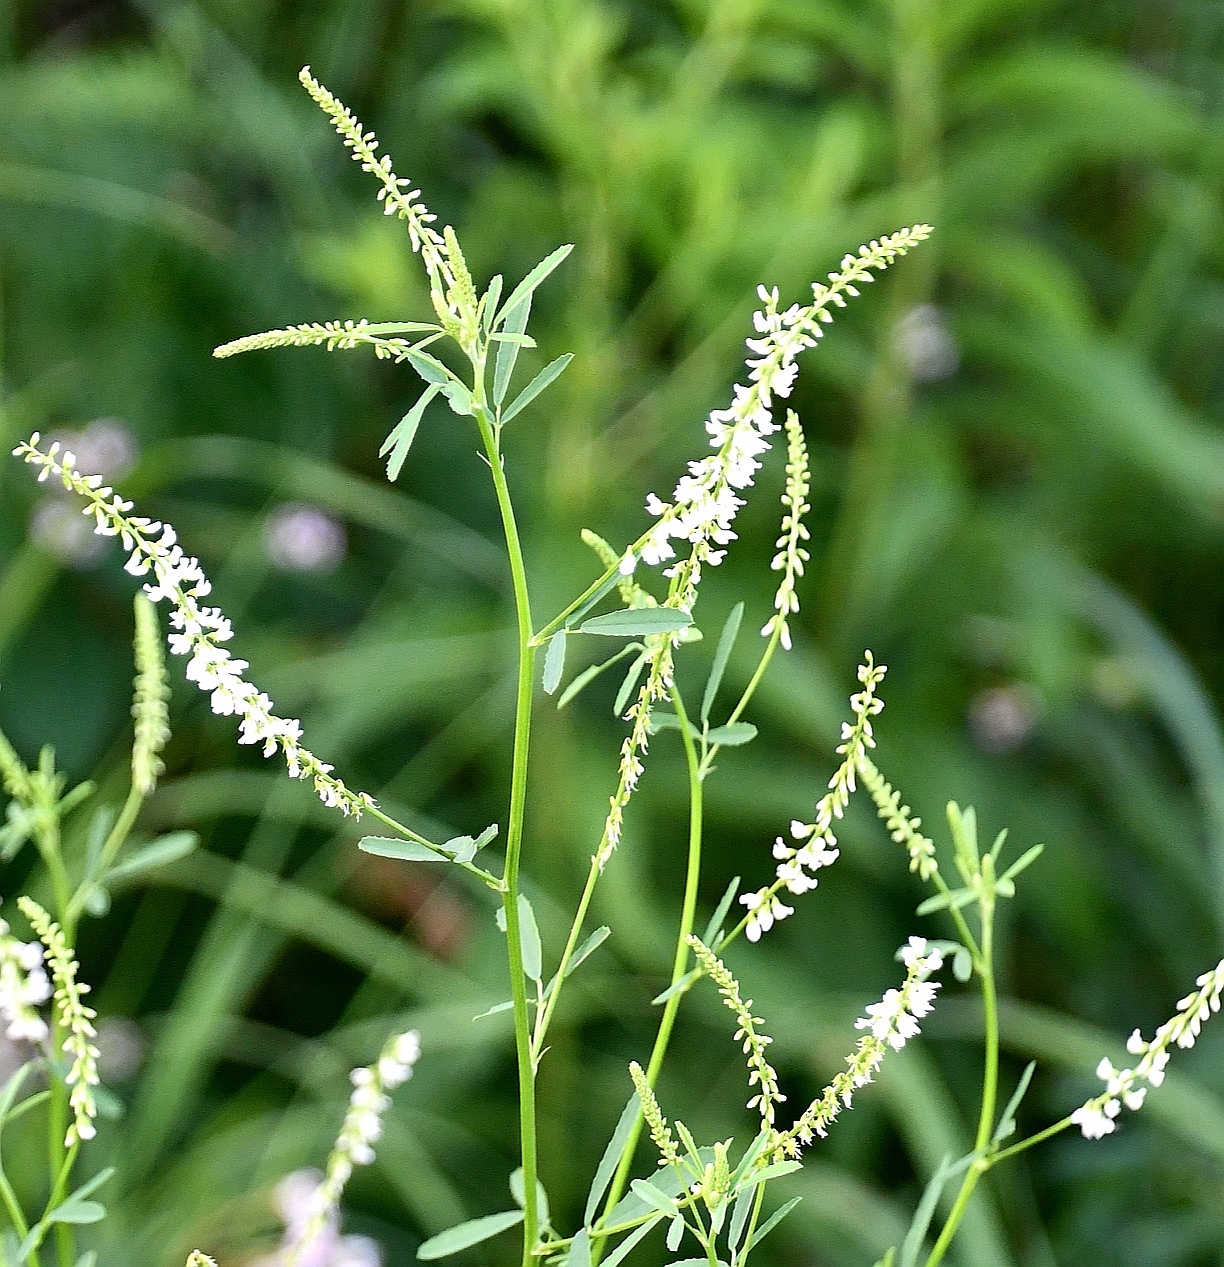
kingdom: Plantae
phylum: Tracheophyta
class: Magnoliopsida
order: Fabales
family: Fabaceae
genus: Melilotus
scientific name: Melilotus albus
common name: White melilot
